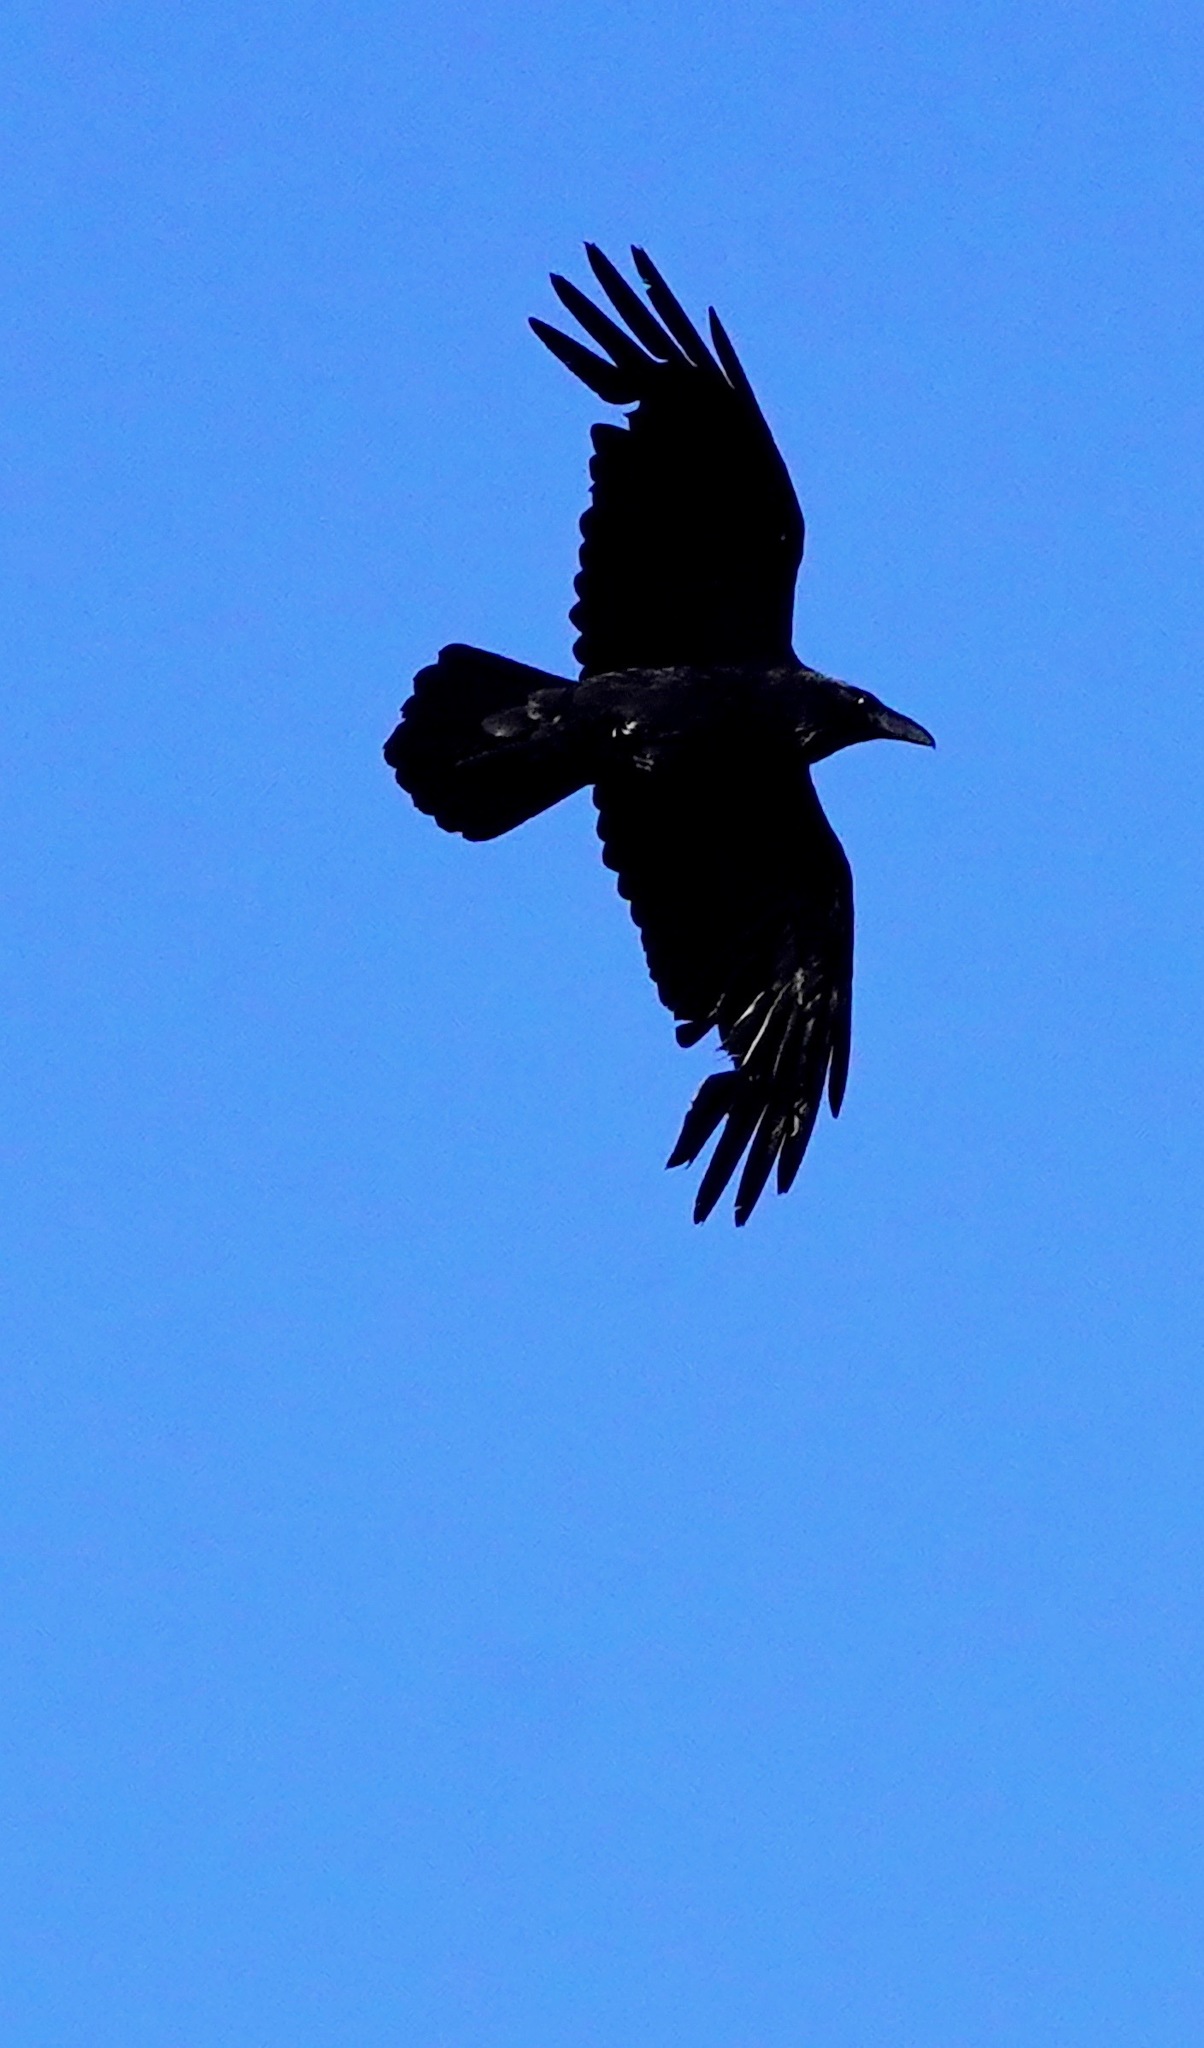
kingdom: Animalia
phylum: Chordata
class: Aves
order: Passeriformes
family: Corvidae
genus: Corvus
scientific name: Corvus corax
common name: Common raven
